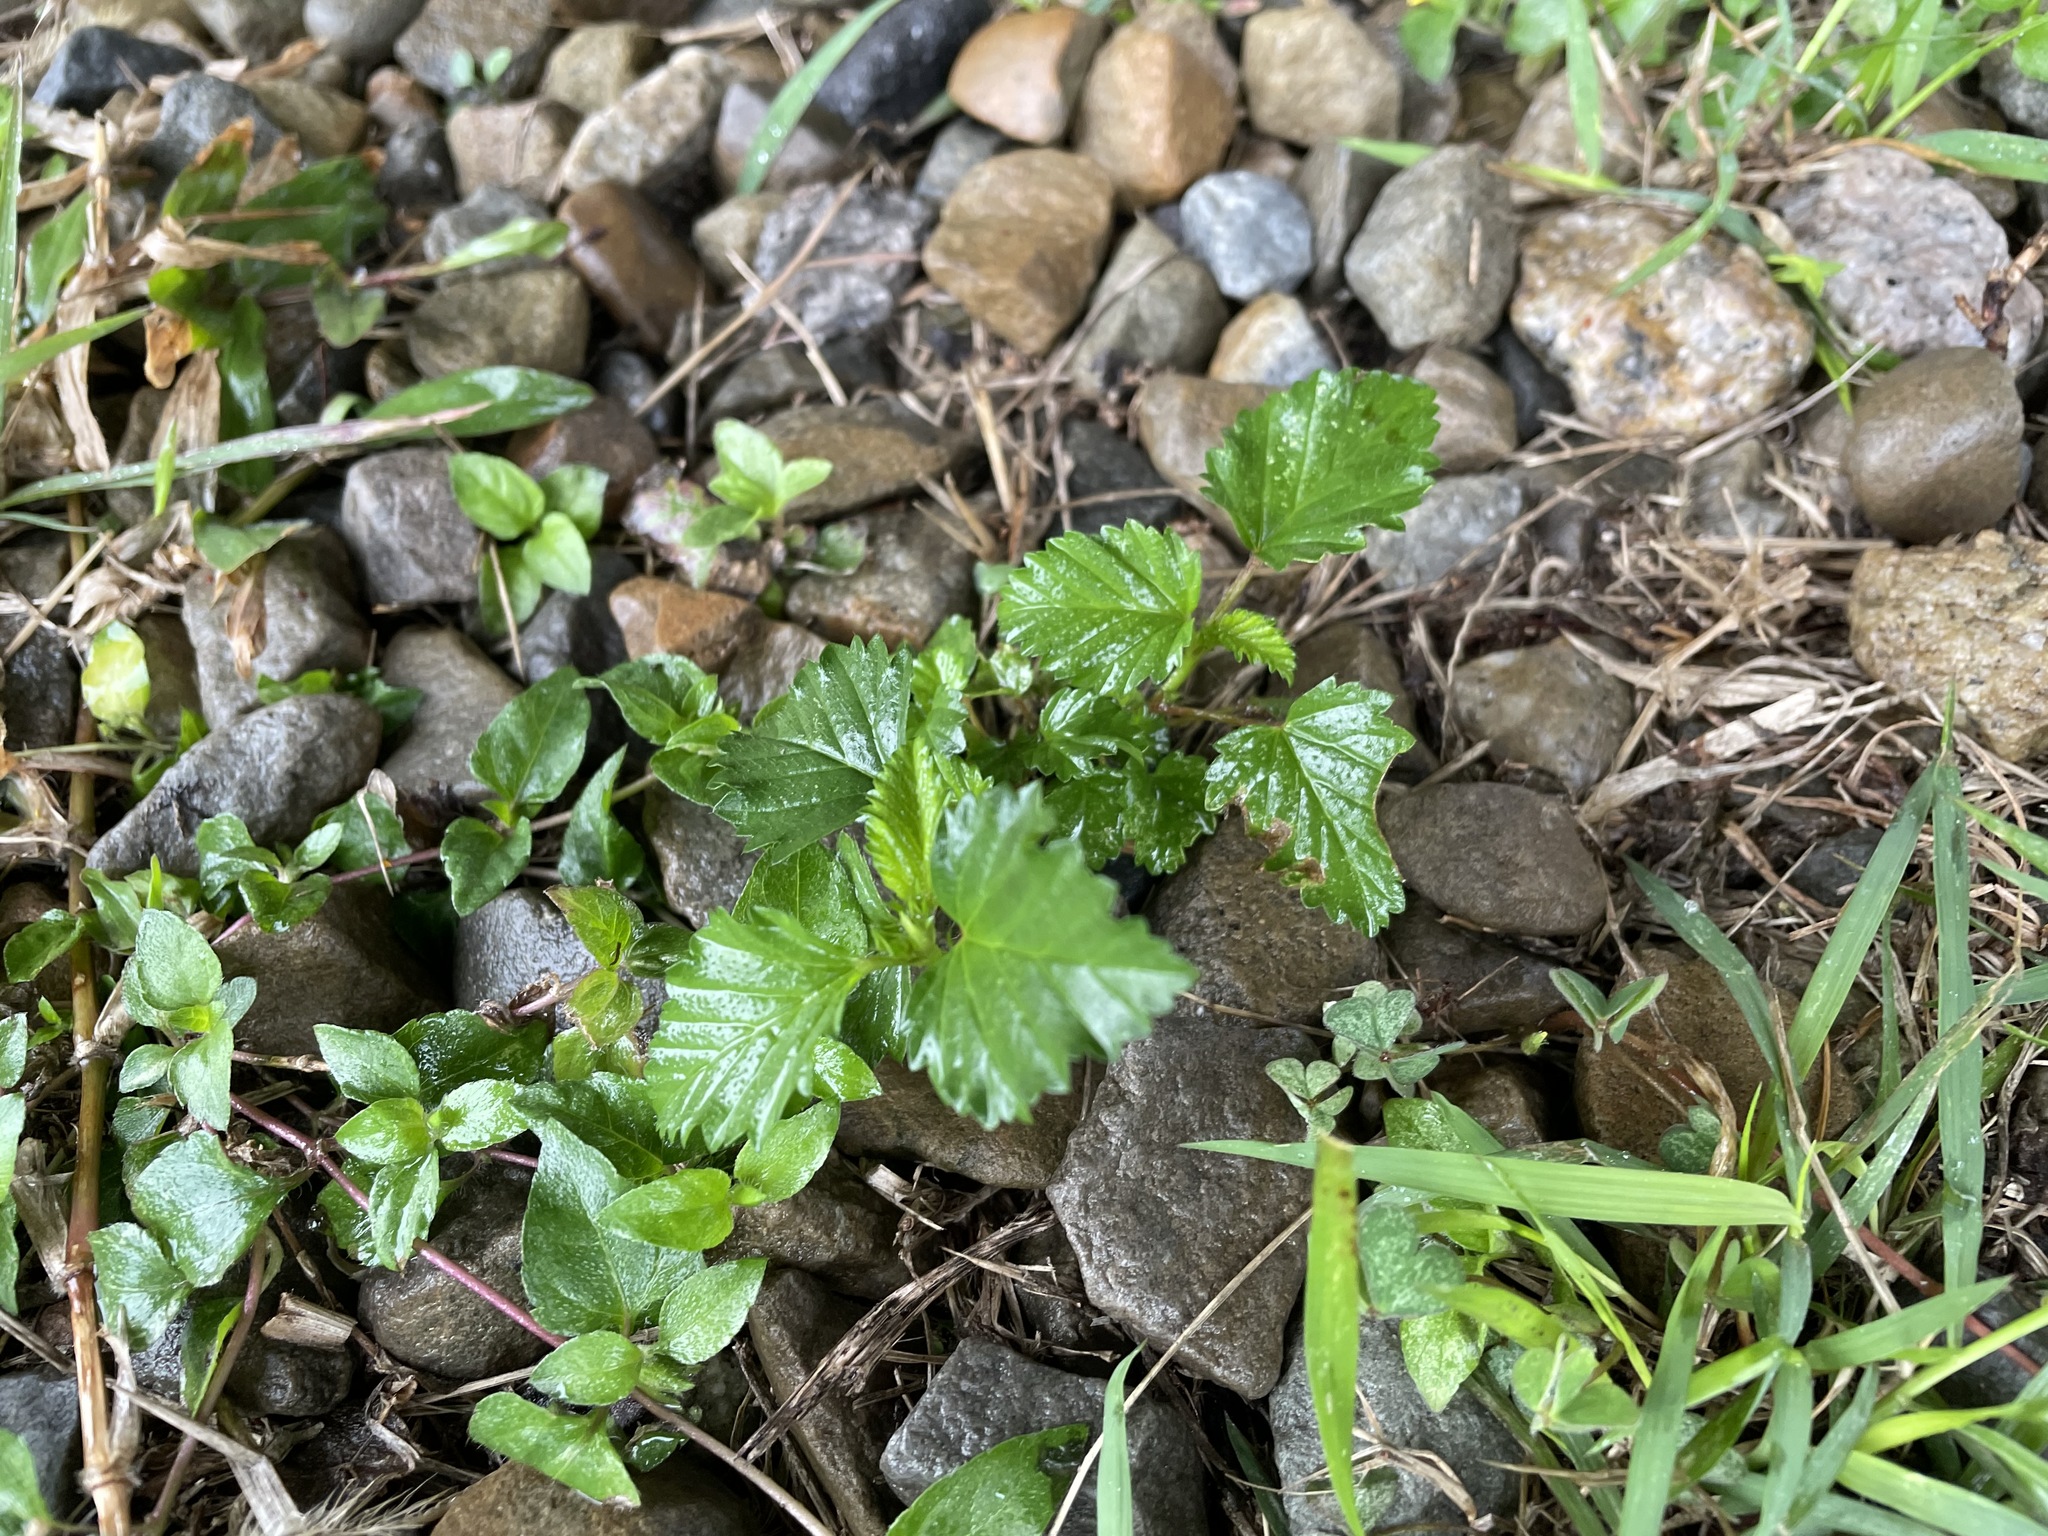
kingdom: Plantae
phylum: Tracheophyta
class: Magnoliopsida
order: Malvales
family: Malvaceae
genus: Malvastrum
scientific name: Malvastrum coromandelianum
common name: Threelobe false mallow
